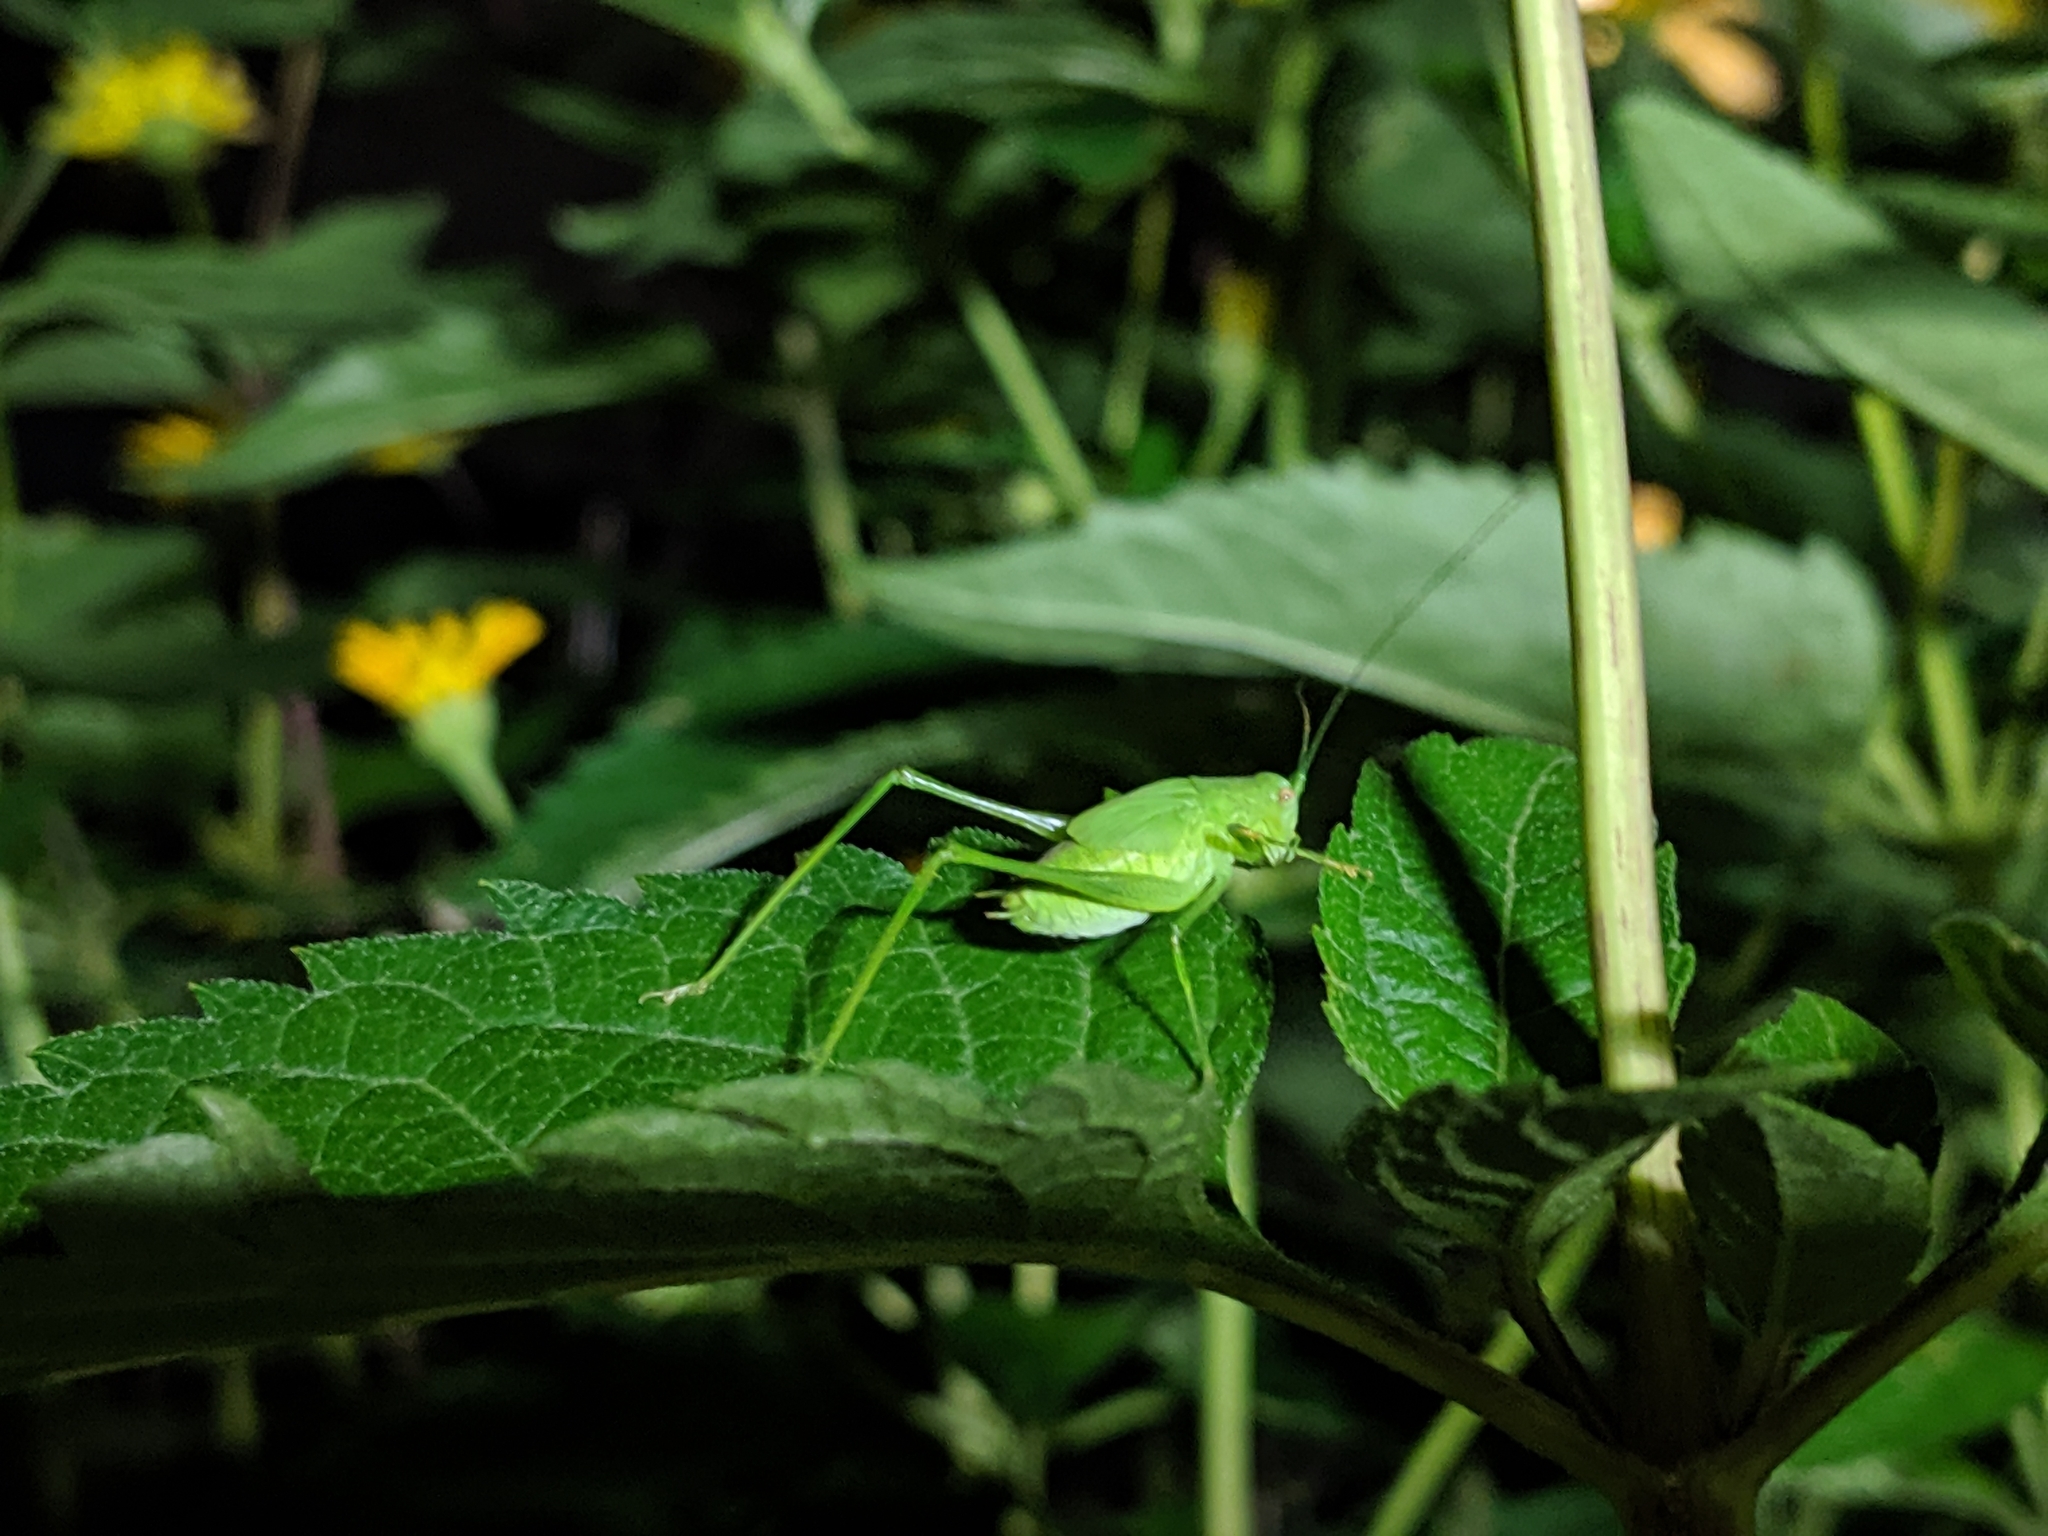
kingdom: Animalia
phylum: Arthropoda
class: Insecta
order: Orthoptera
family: Tettigoniidae
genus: Phaneroptera
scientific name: Phaneroptera nana
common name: Southern sickle bush-cricket
